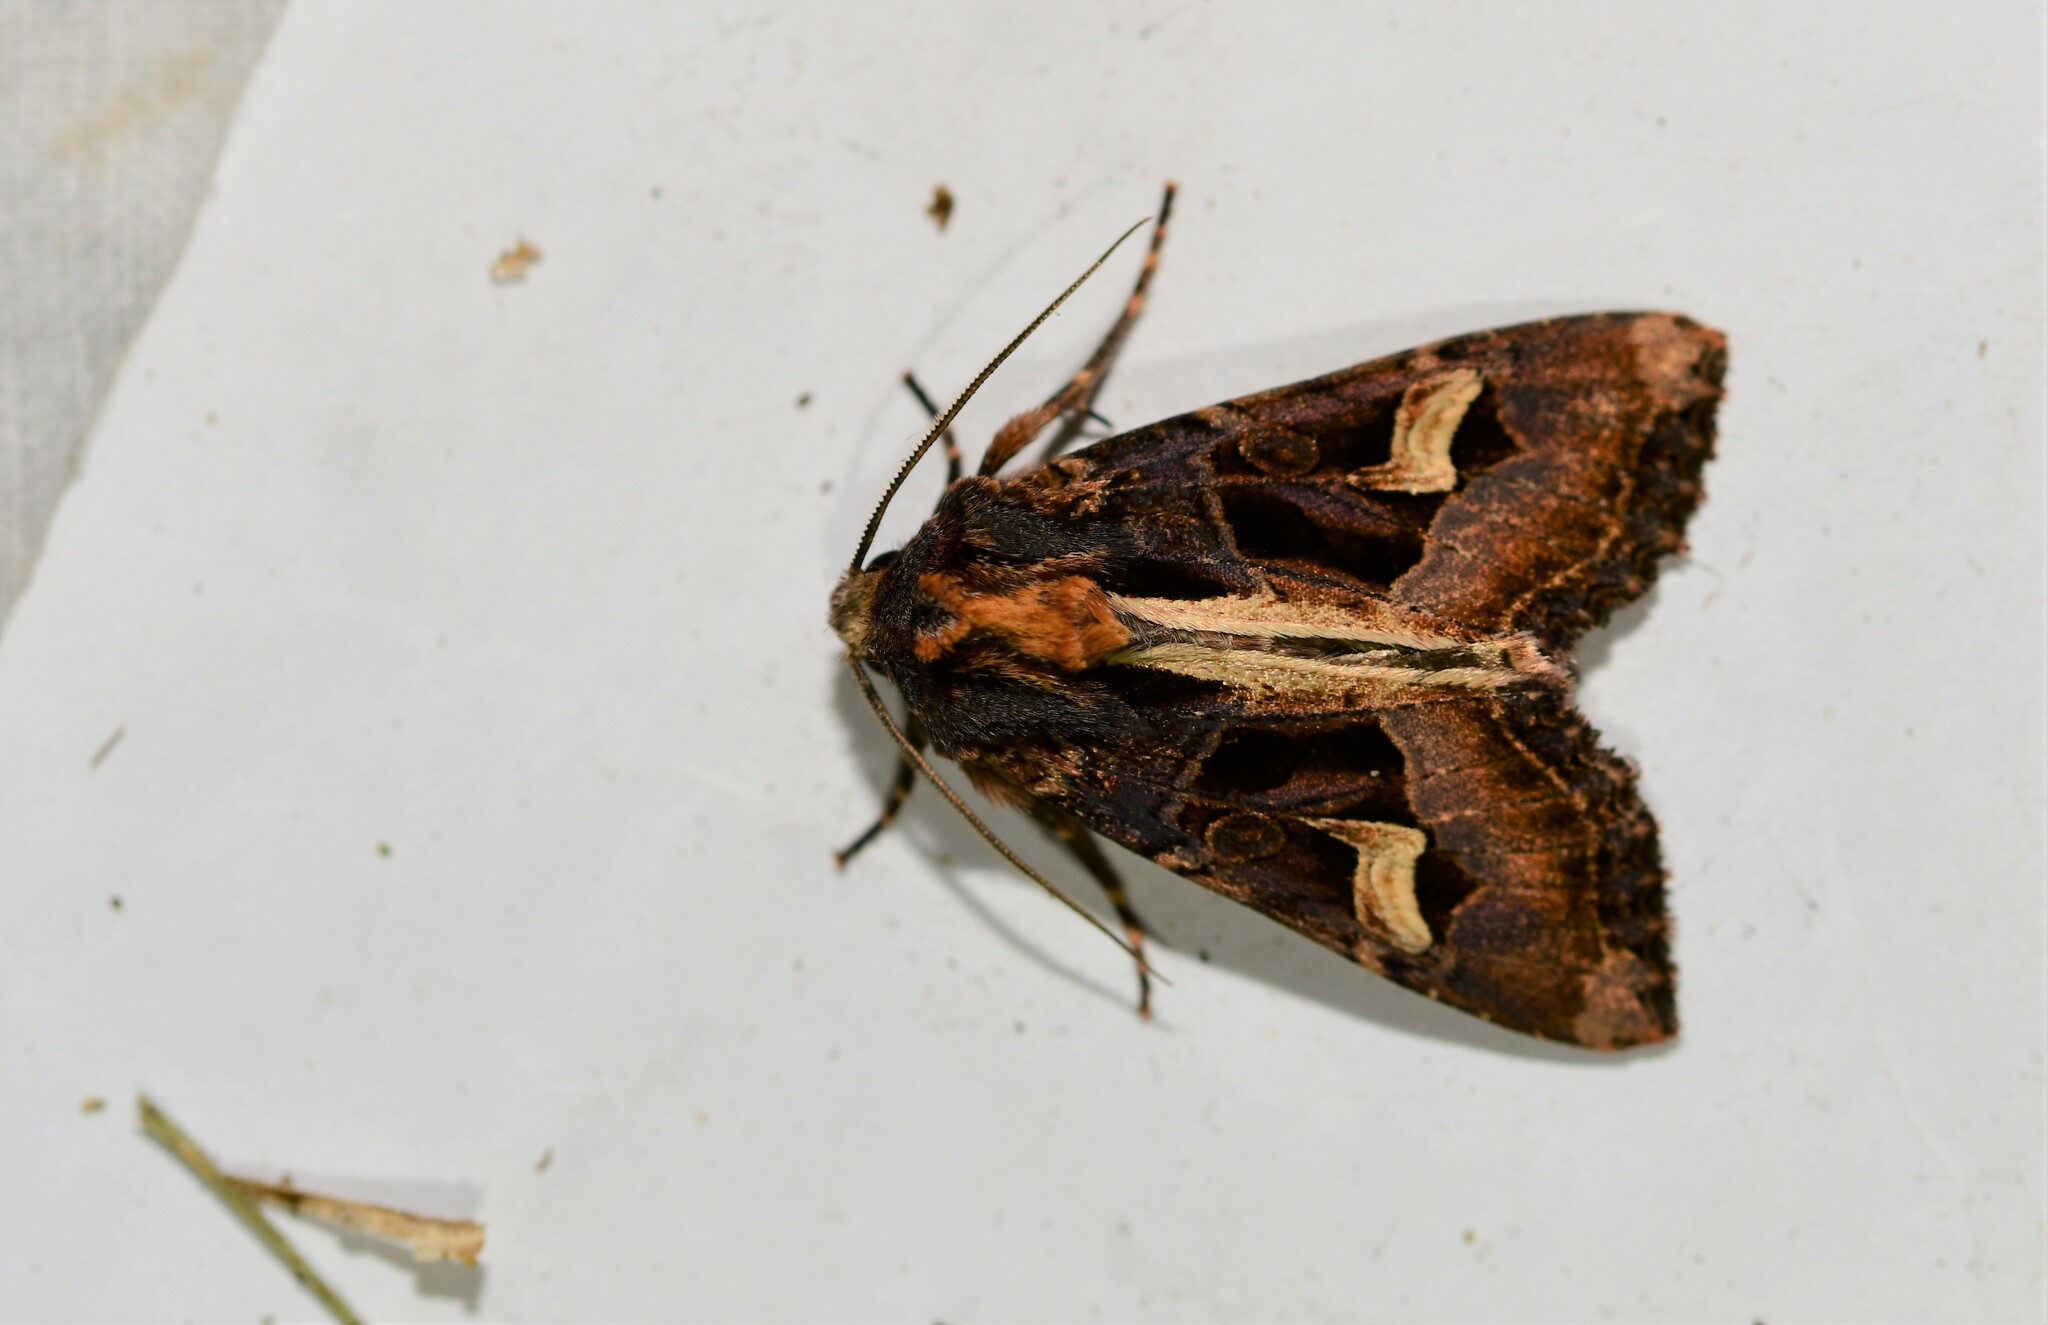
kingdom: Animalia
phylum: Arthropoda
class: Insecta
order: Lepidoptera
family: Noctuidae
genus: Trigonophora
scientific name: Trigonophora flammea
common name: Flame brocade
